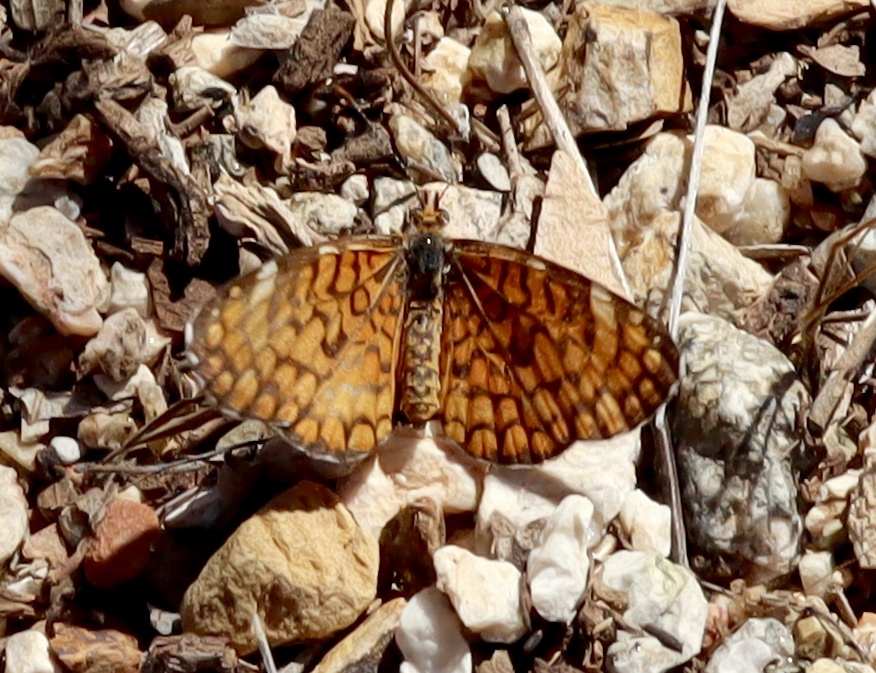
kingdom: Animalia
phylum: Arthropoda
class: Insecta
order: Lepidoptera
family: Nymphalidae
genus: Dymasia
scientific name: Dymasia dymas
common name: Tiny checkerspot
